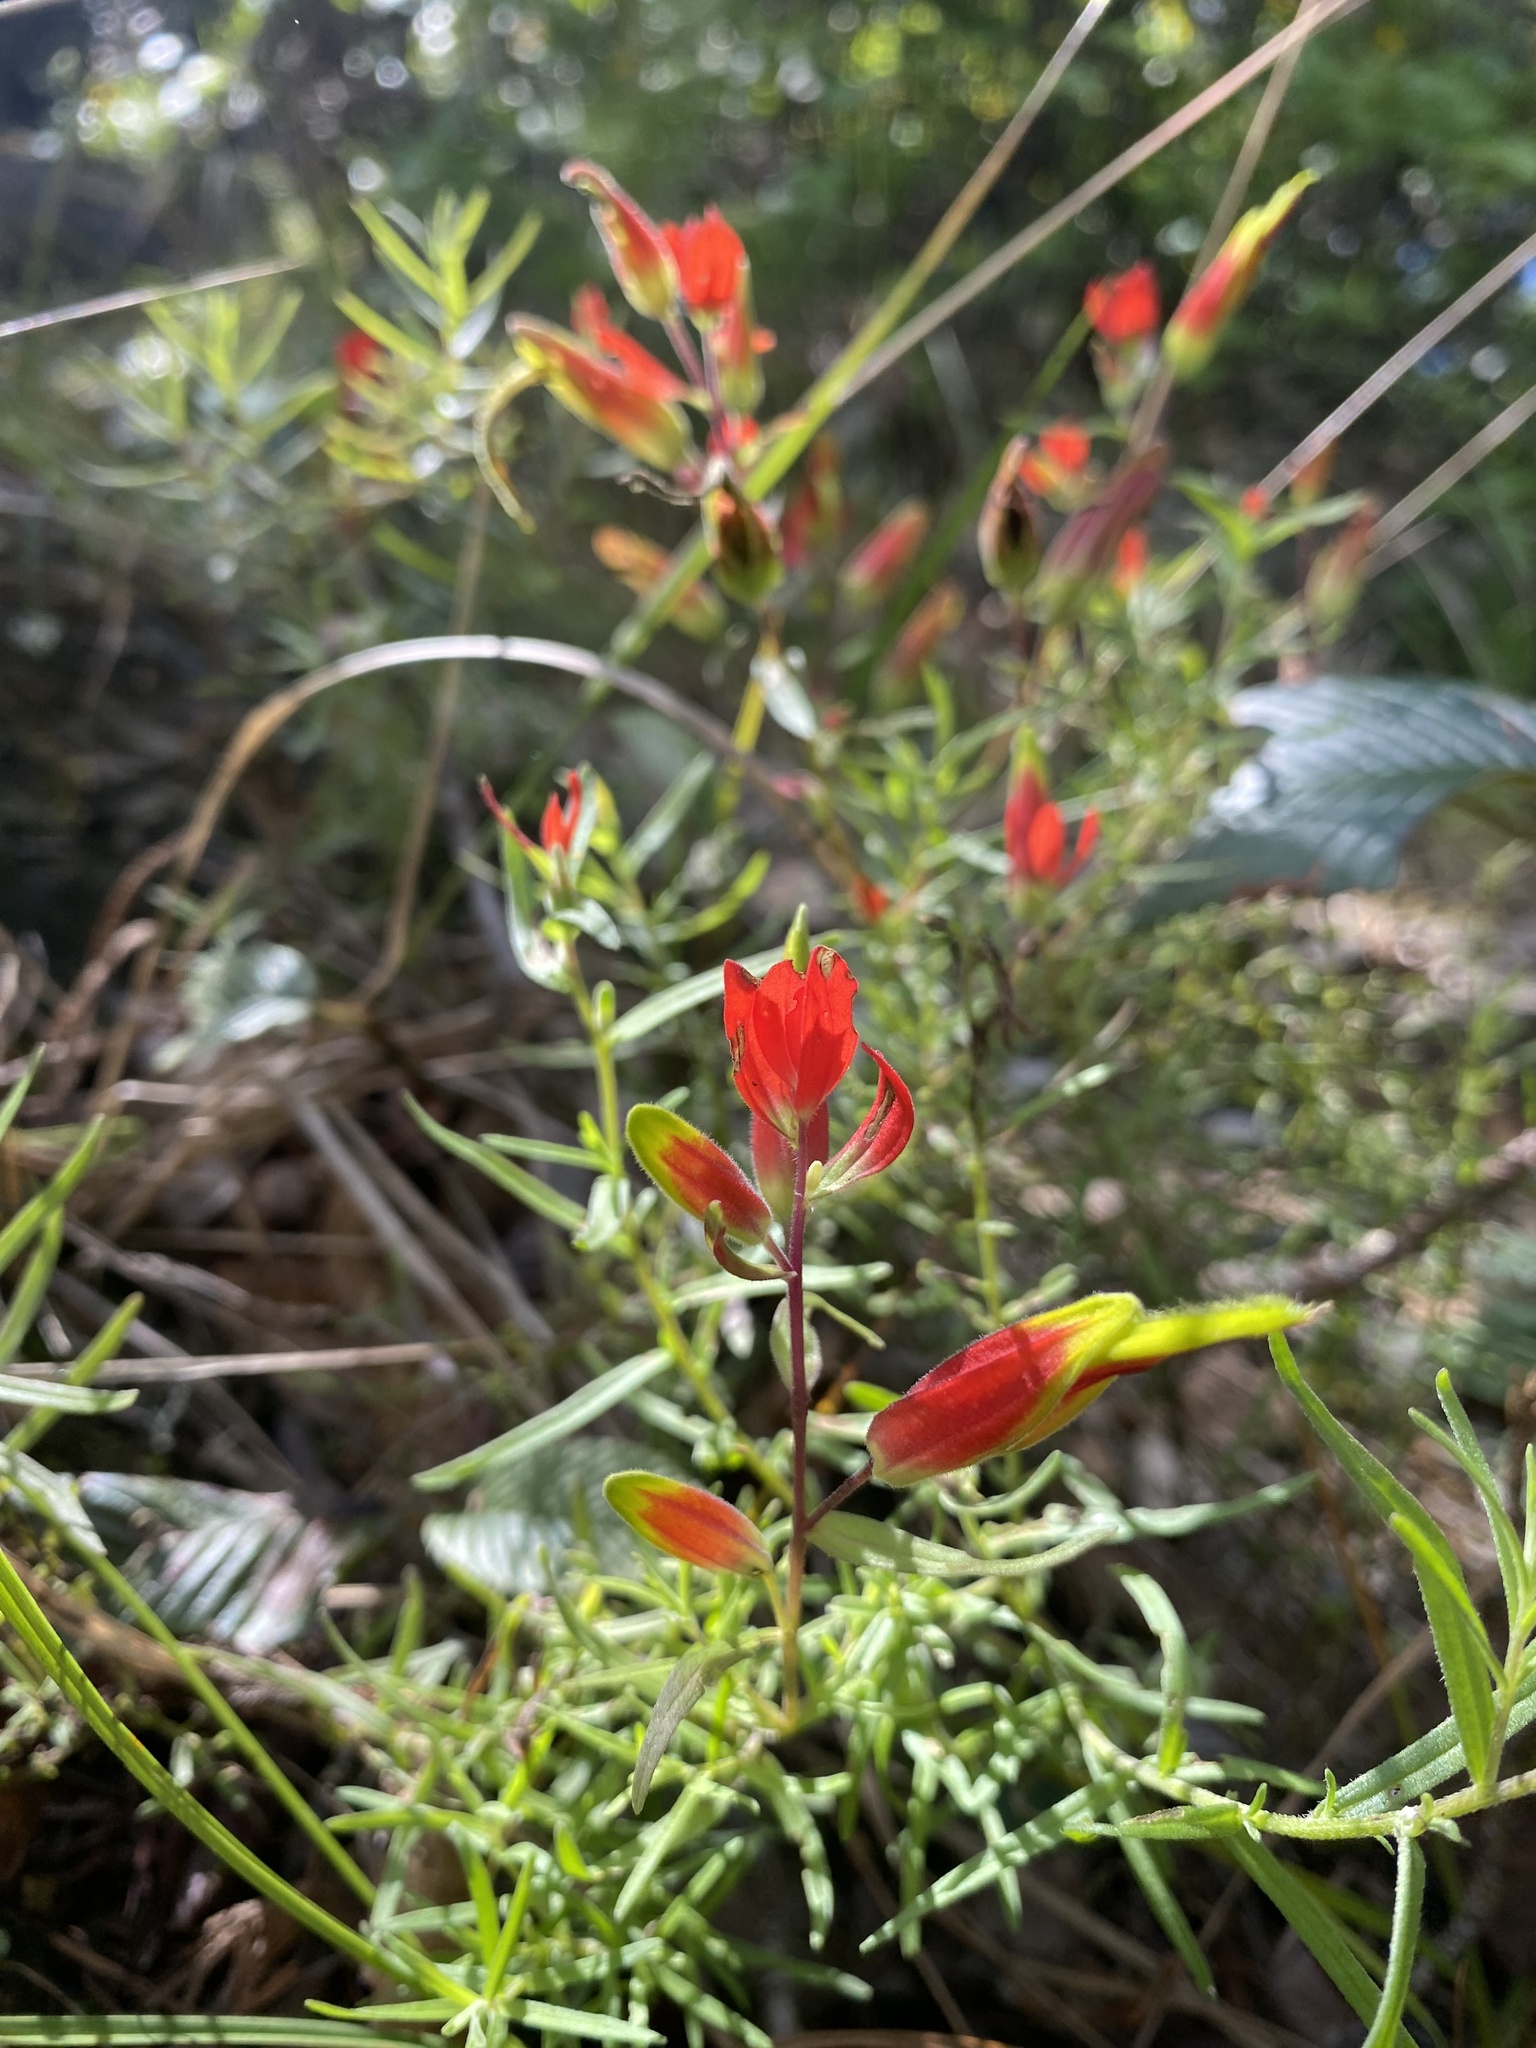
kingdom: Plantae
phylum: Tracheophyta
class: Magnoliopsida
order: Lamiales
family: Orobanchaceae
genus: Castilleja
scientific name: Castilleja integrifolia
